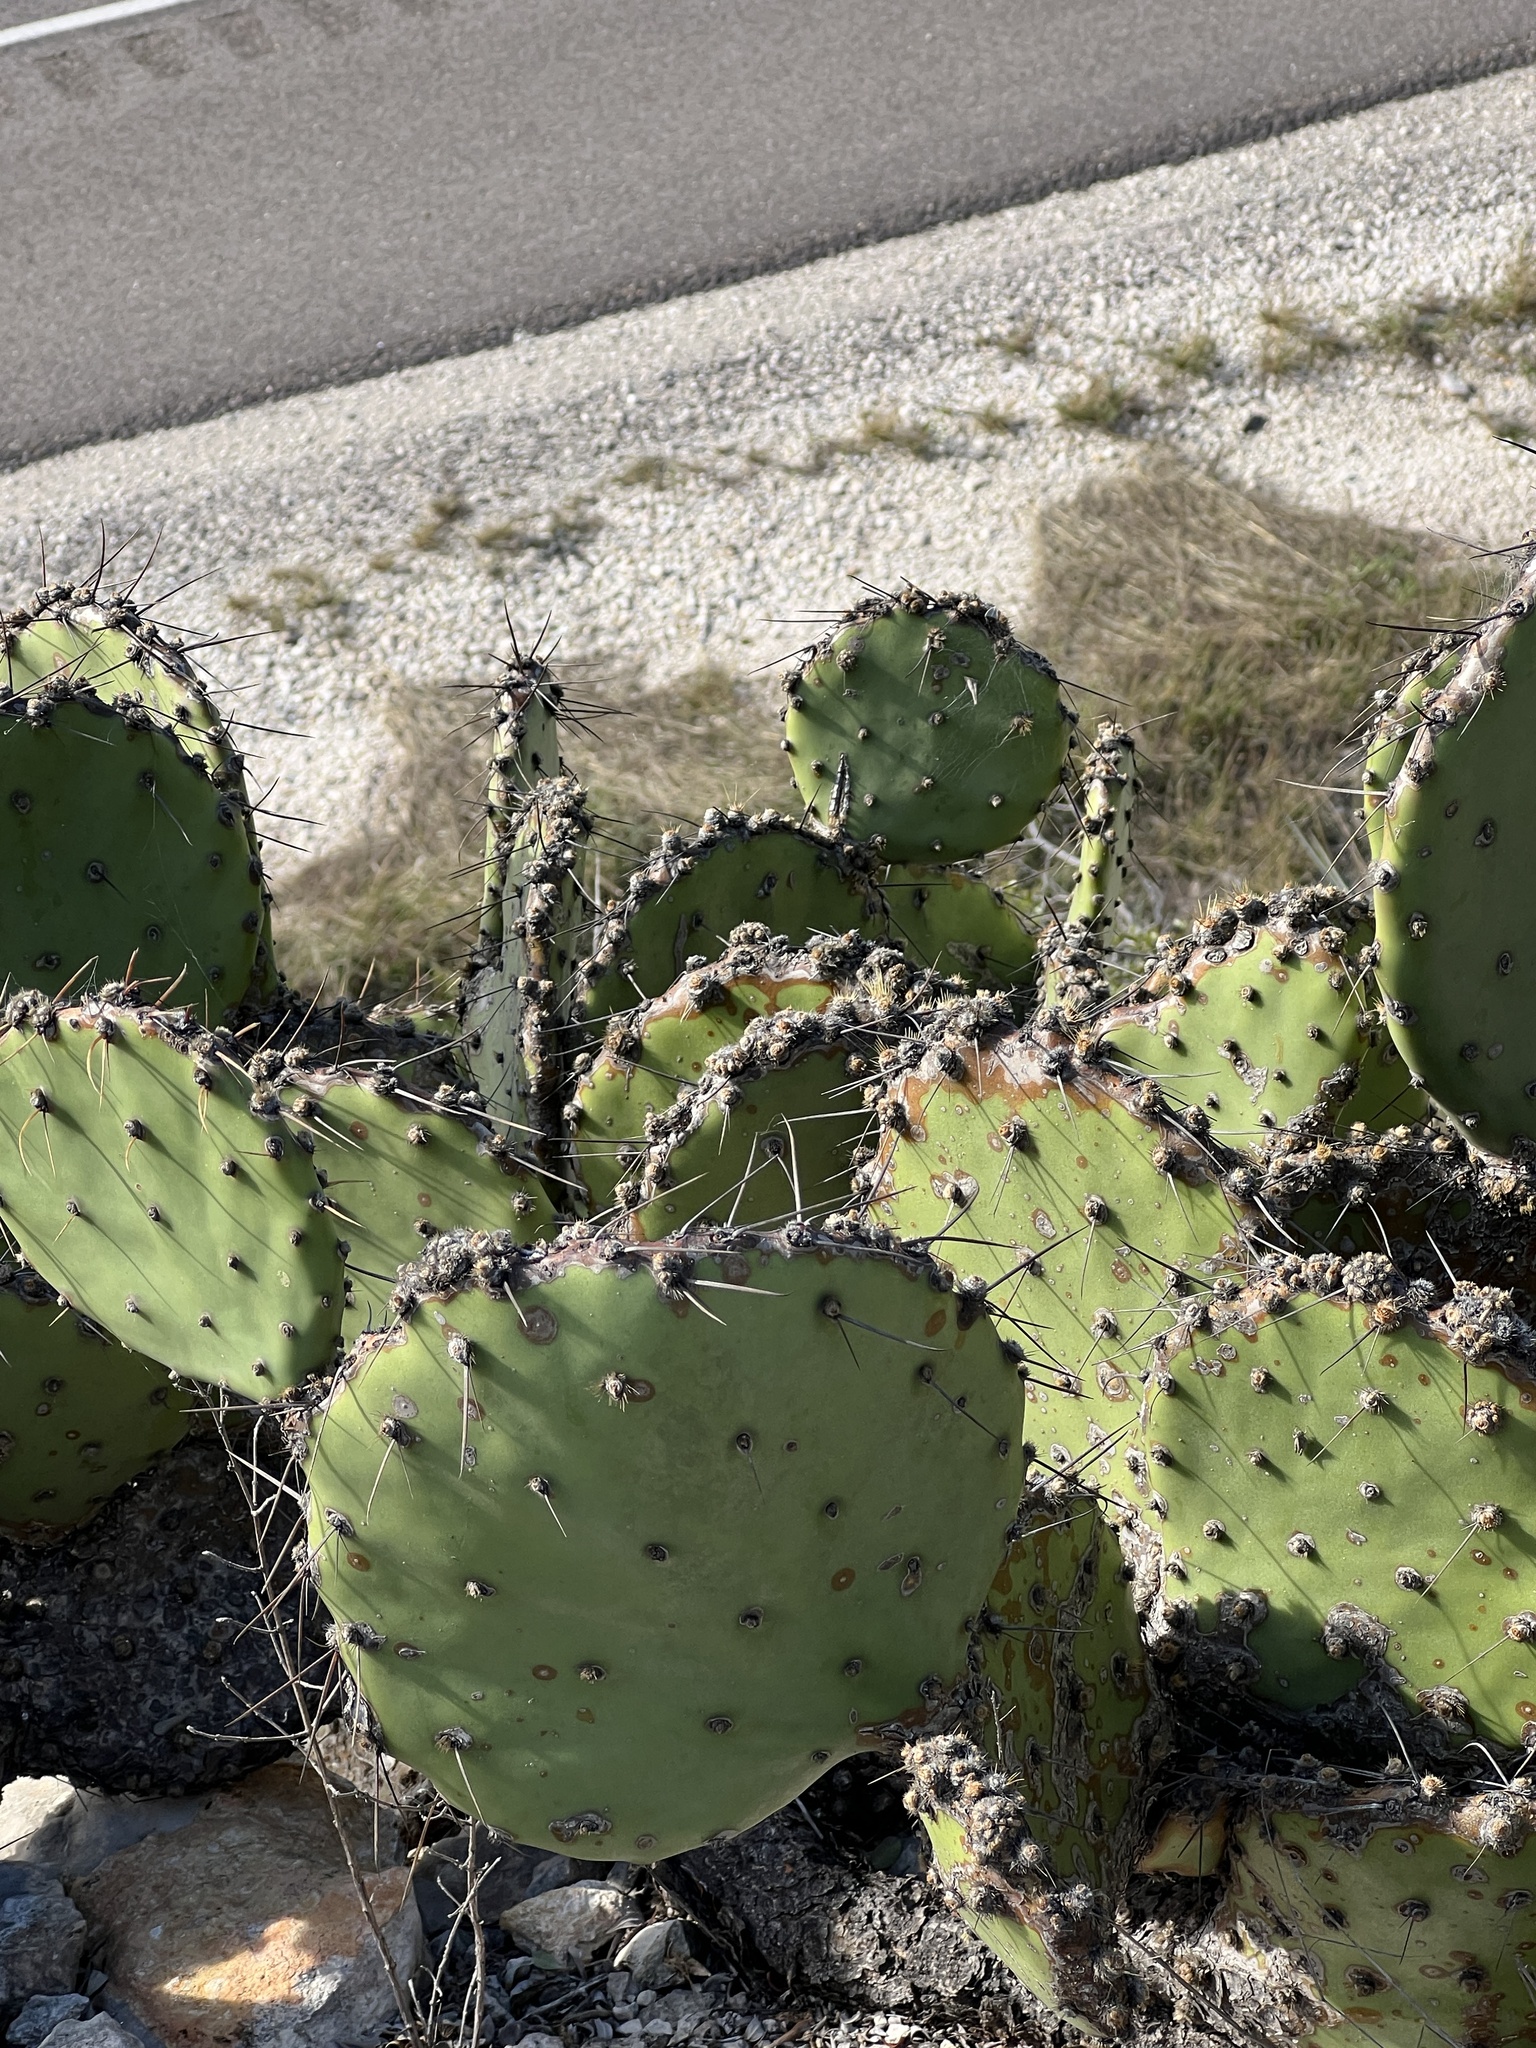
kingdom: Plantae
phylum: Tracheophyta
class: Magnoliopsida
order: Caryophyllales
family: Cactaceae
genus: Opuntia
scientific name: Opuntia phaeacantha
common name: New mexico prickly-pear
